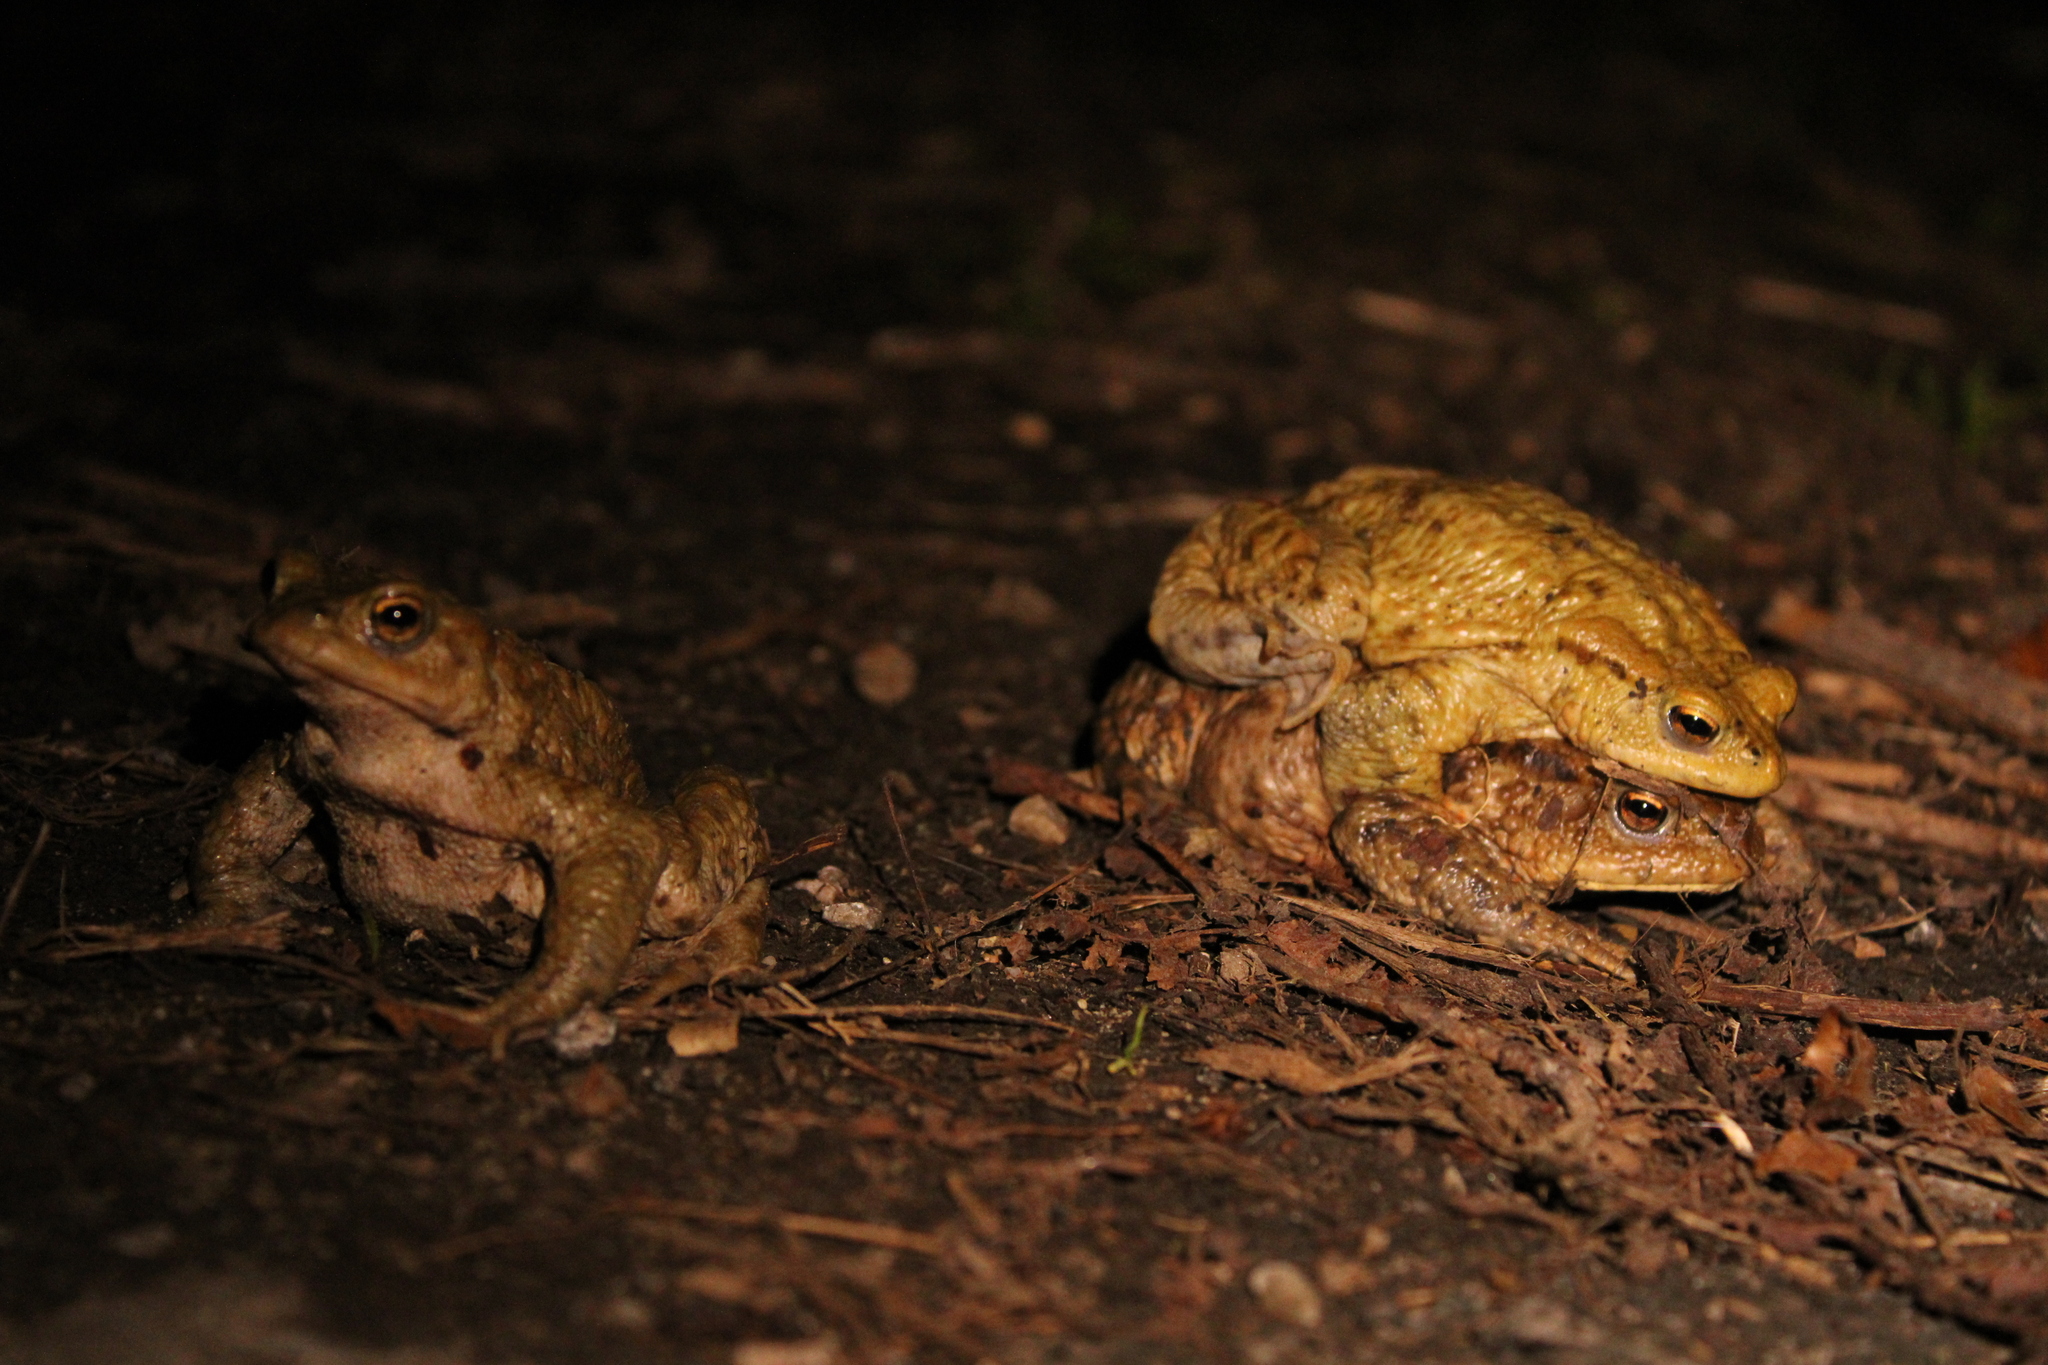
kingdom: Animalia
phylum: Chordata
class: Amphibia
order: Anura
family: Bufonidae
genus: Bufo
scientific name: Bufo bufo
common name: Common toad
